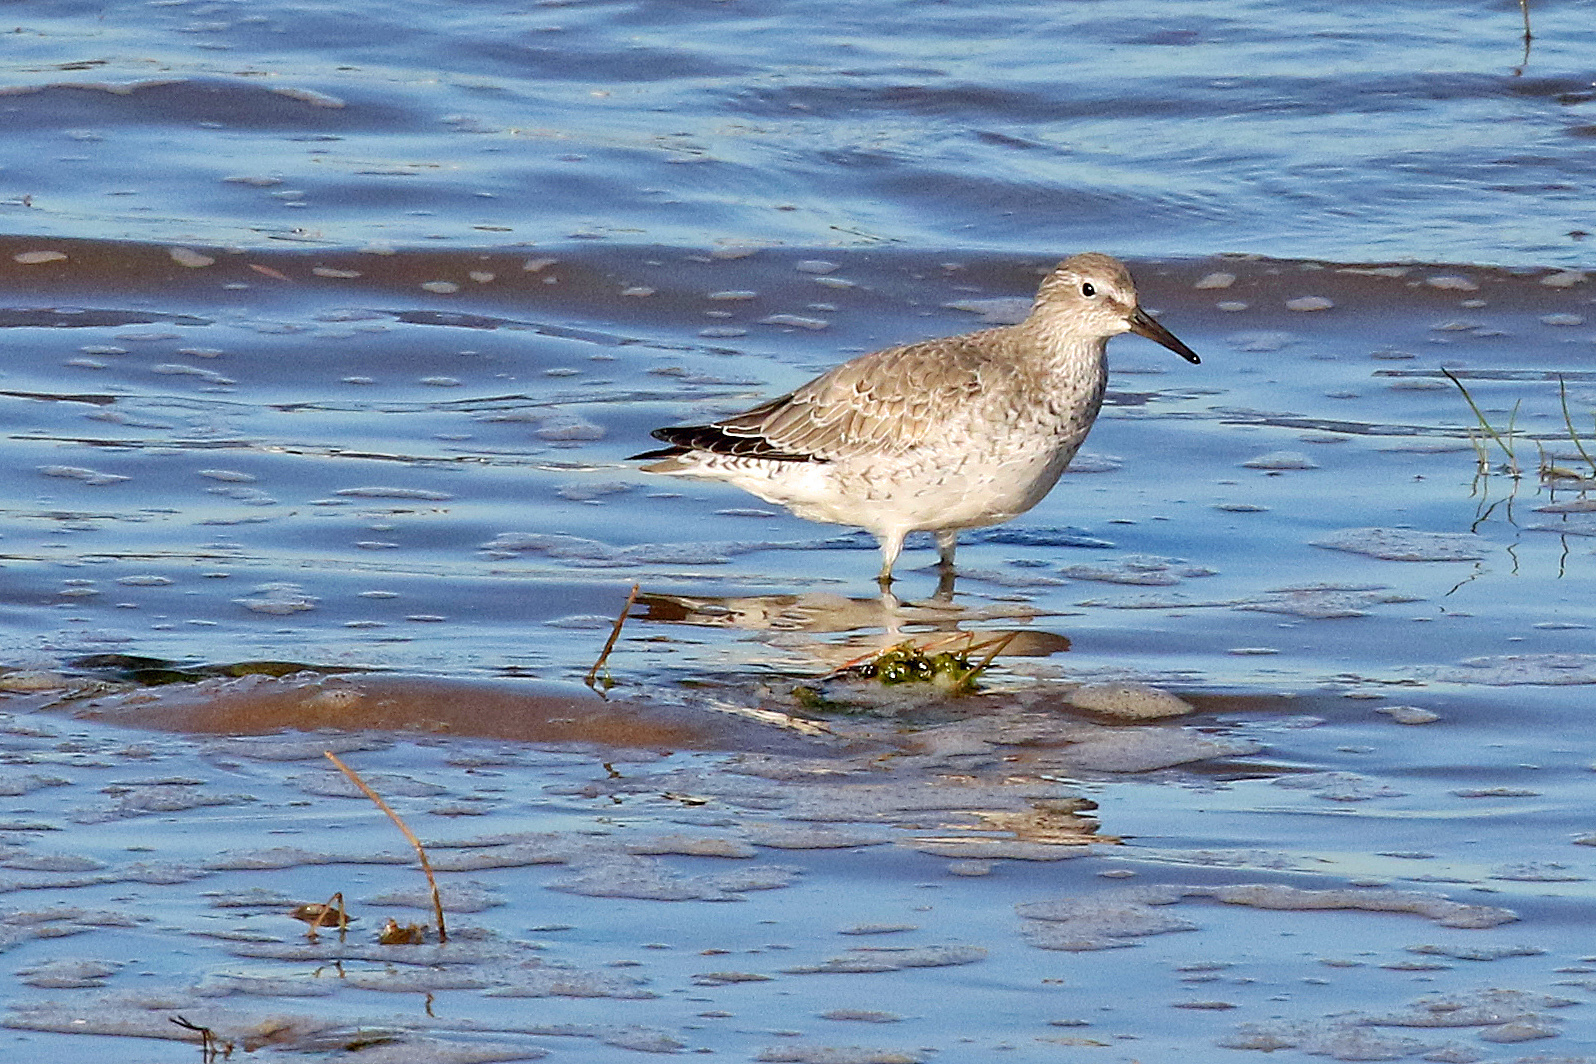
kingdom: Animalia
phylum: Chordata
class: Aves
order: Charadriiformes
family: Scolopacidae
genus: Calidris
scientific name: Calidris canutus
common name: Red knot
